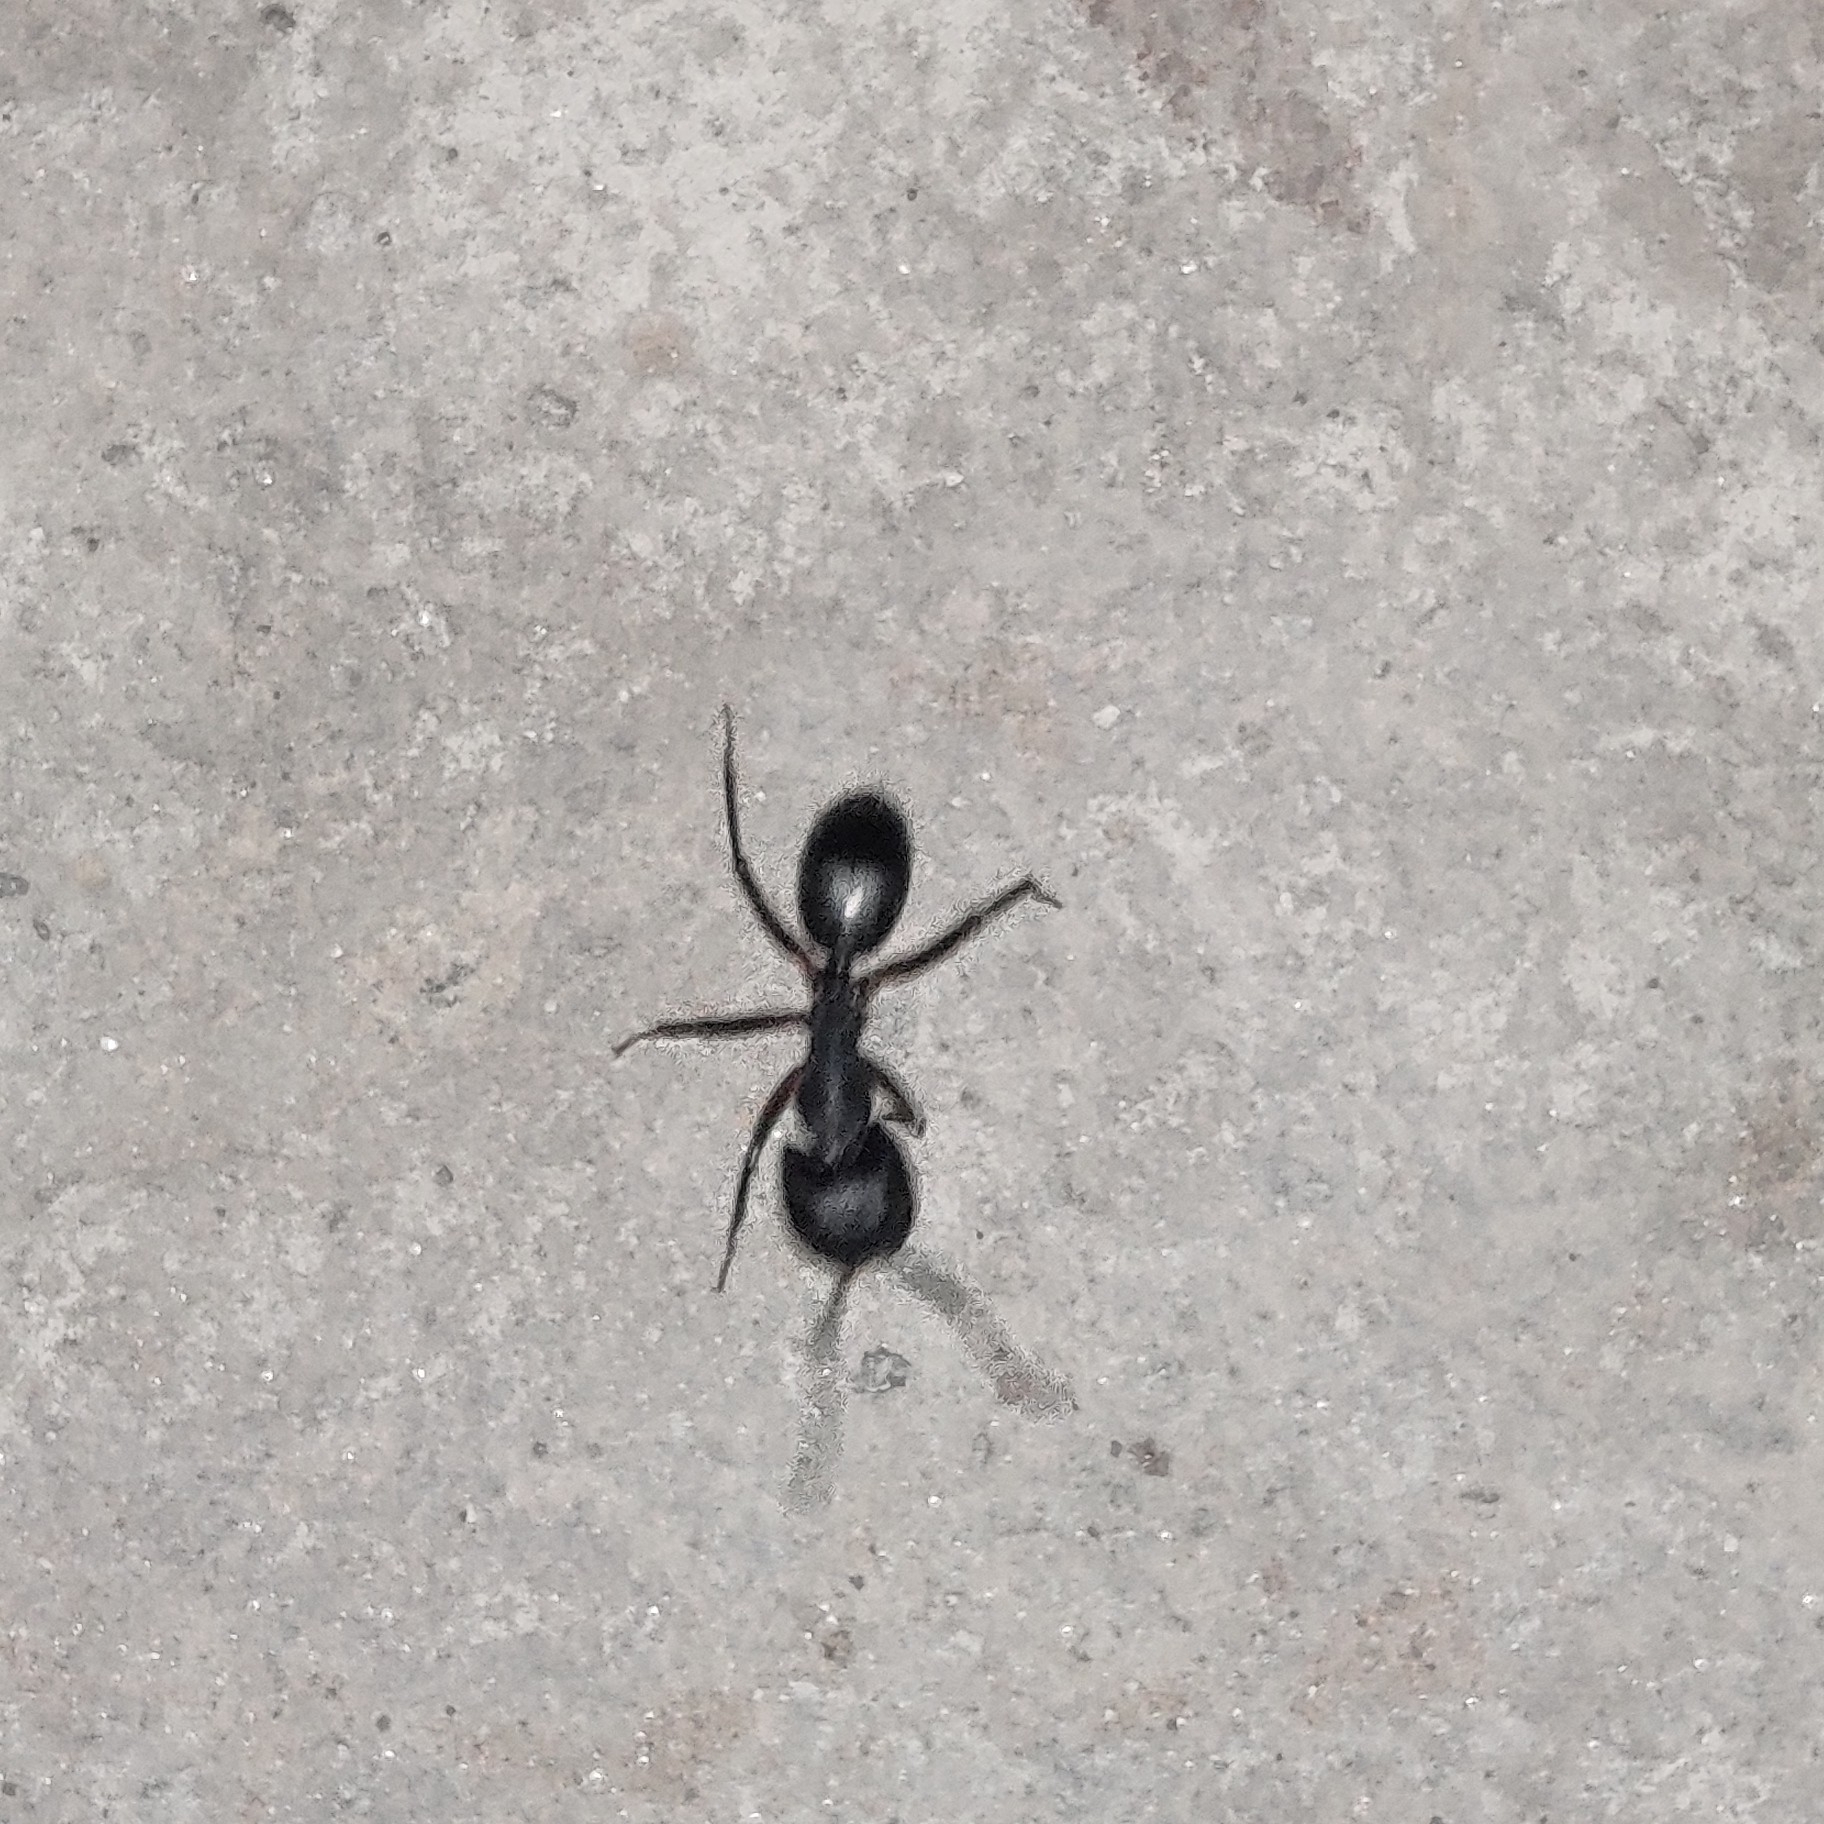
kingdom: Animalia
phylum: Arthropoda
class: Insecta
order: Hymenoptera
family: Formicidae
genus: Camponotus
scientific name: Camponotus compressus
